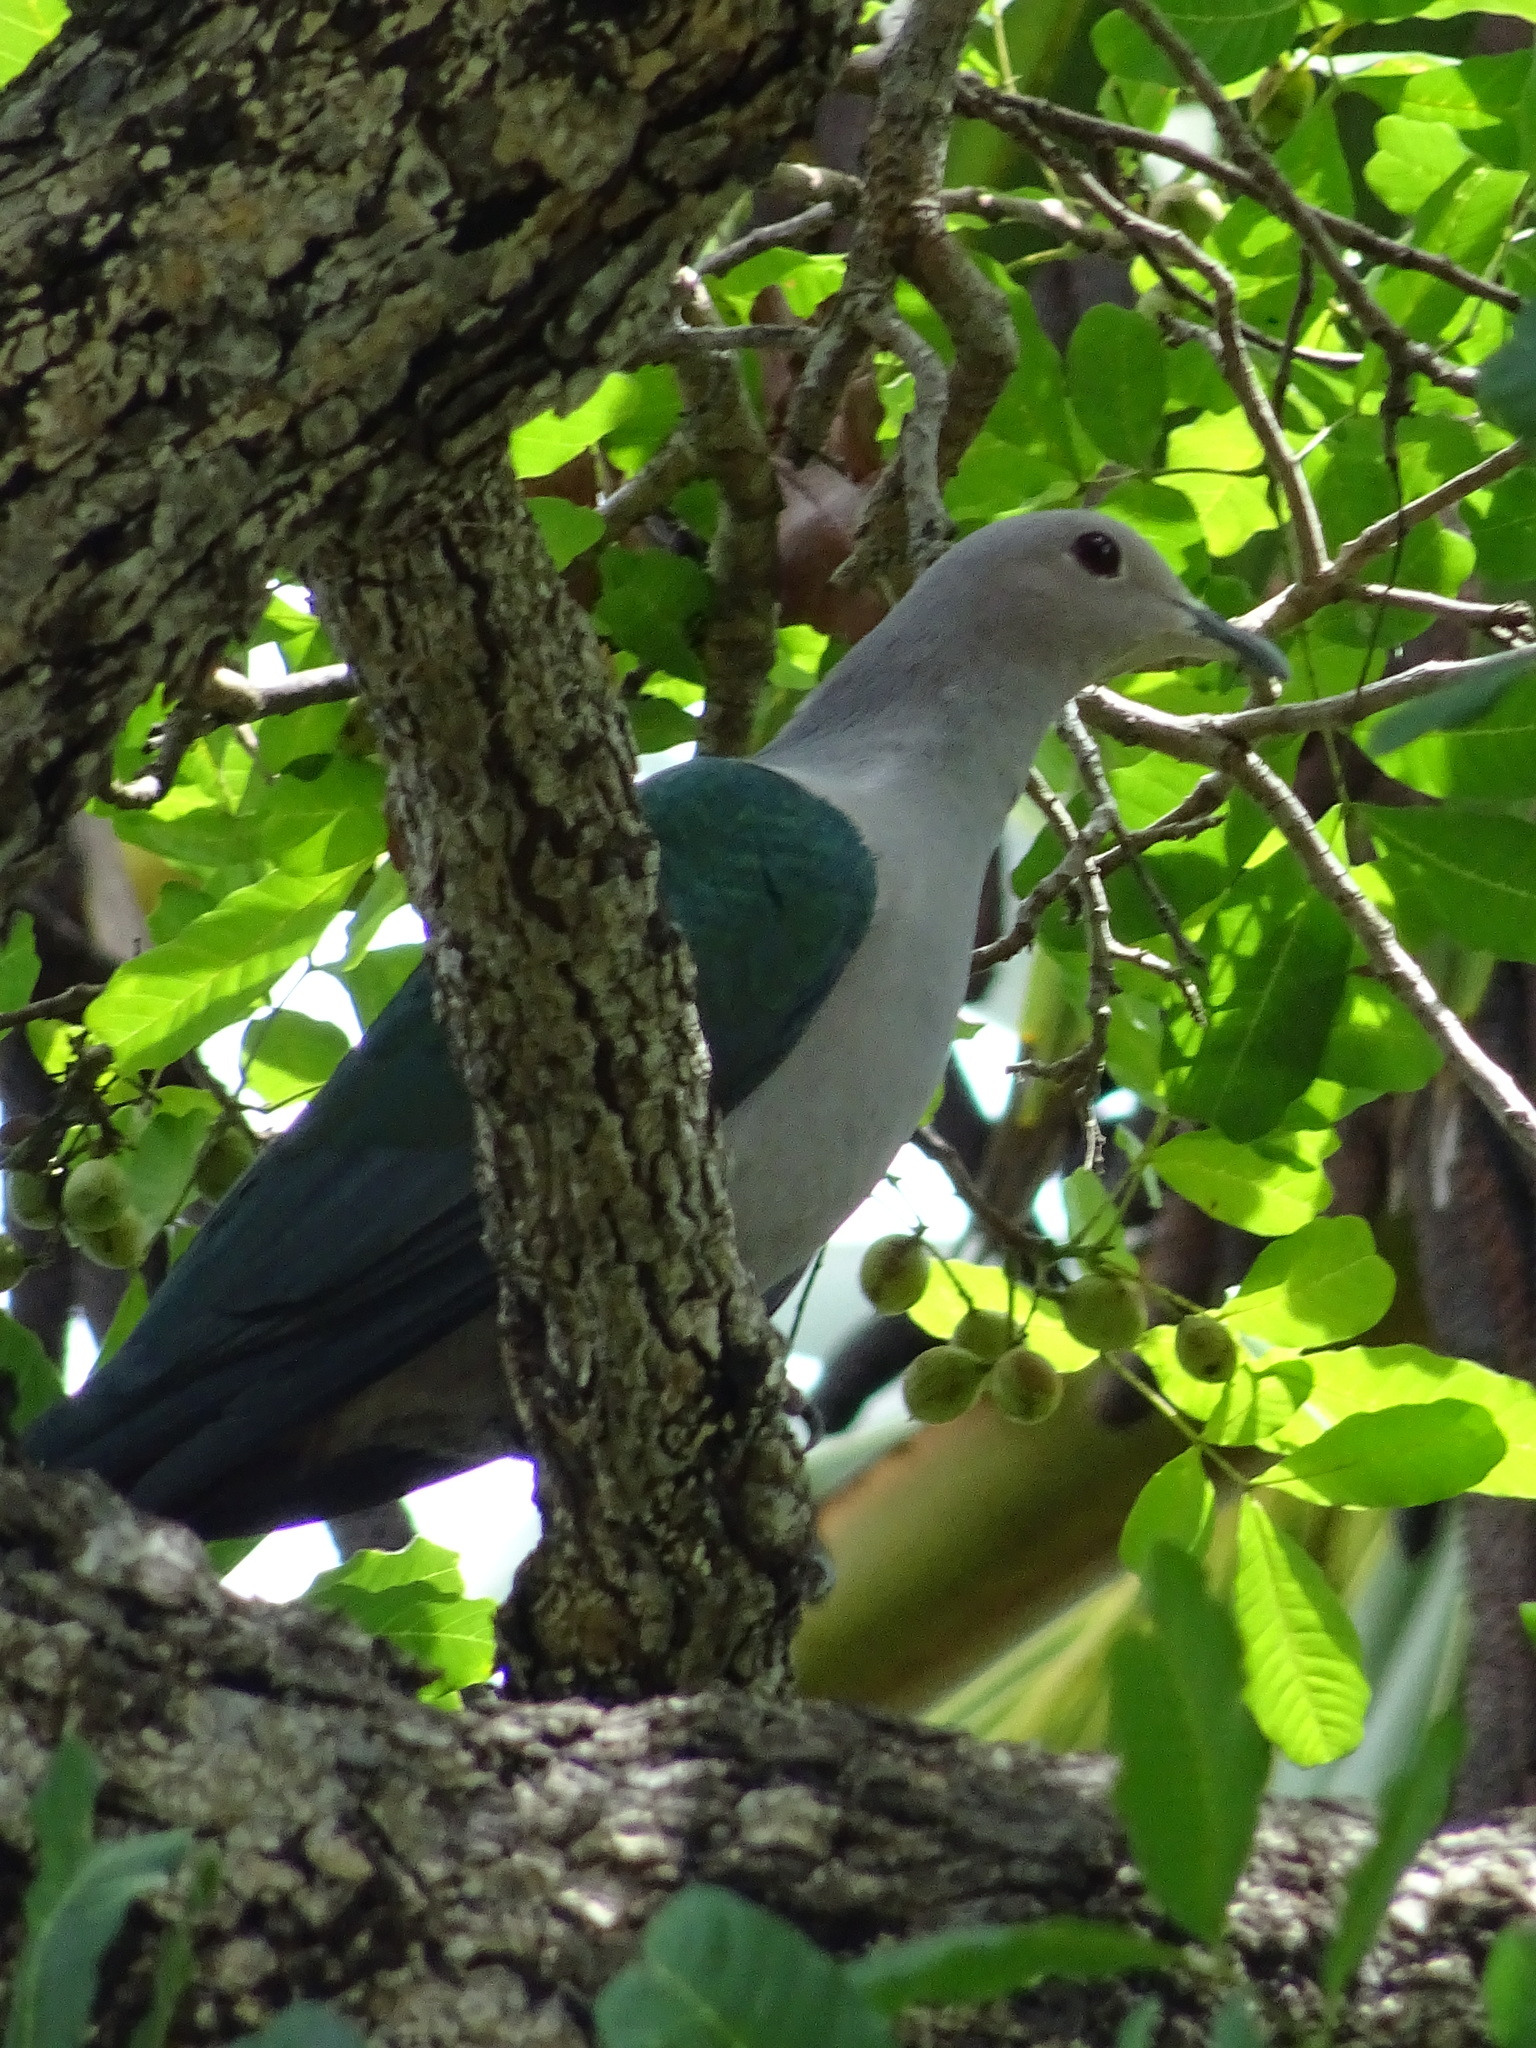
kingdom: Animalia
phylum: Chordata
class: Aves
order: Columbiformes
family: Columbidae
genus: Ducula
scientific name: Ducula aenea
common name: Green imperial pigeon
